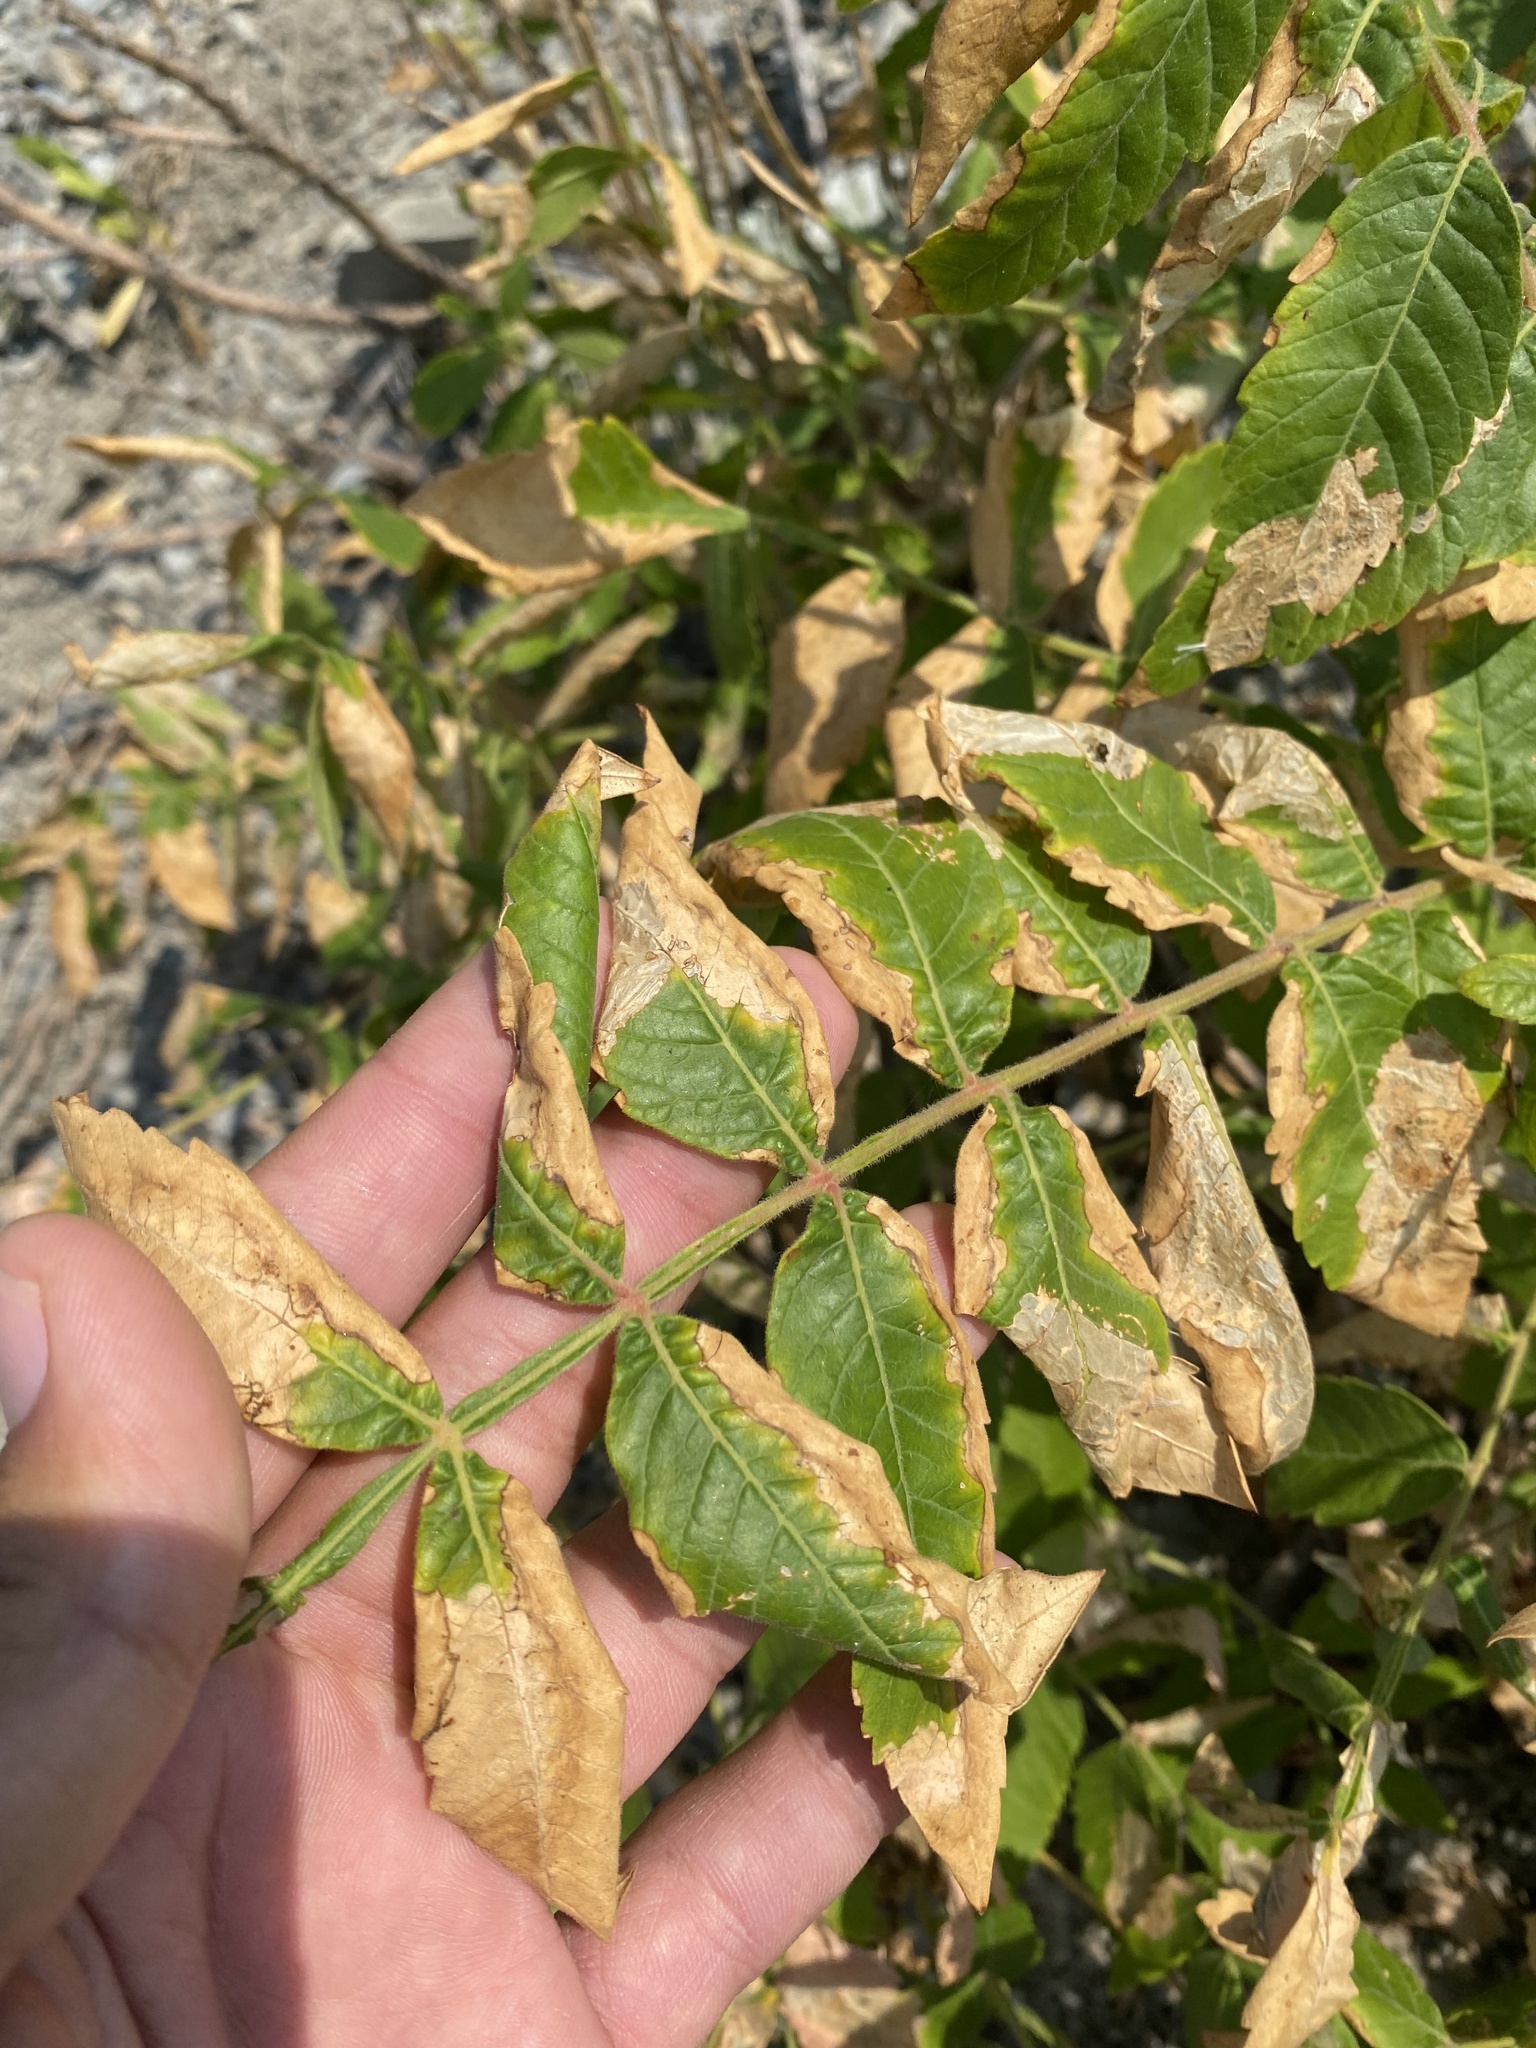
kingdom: Plantae
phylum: Tracheophyta
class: Magnoliopsida
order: Sapindales
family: Anacardiaceae
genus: Rhus
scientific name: Rhus coriaria
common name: Tanner's sumach
